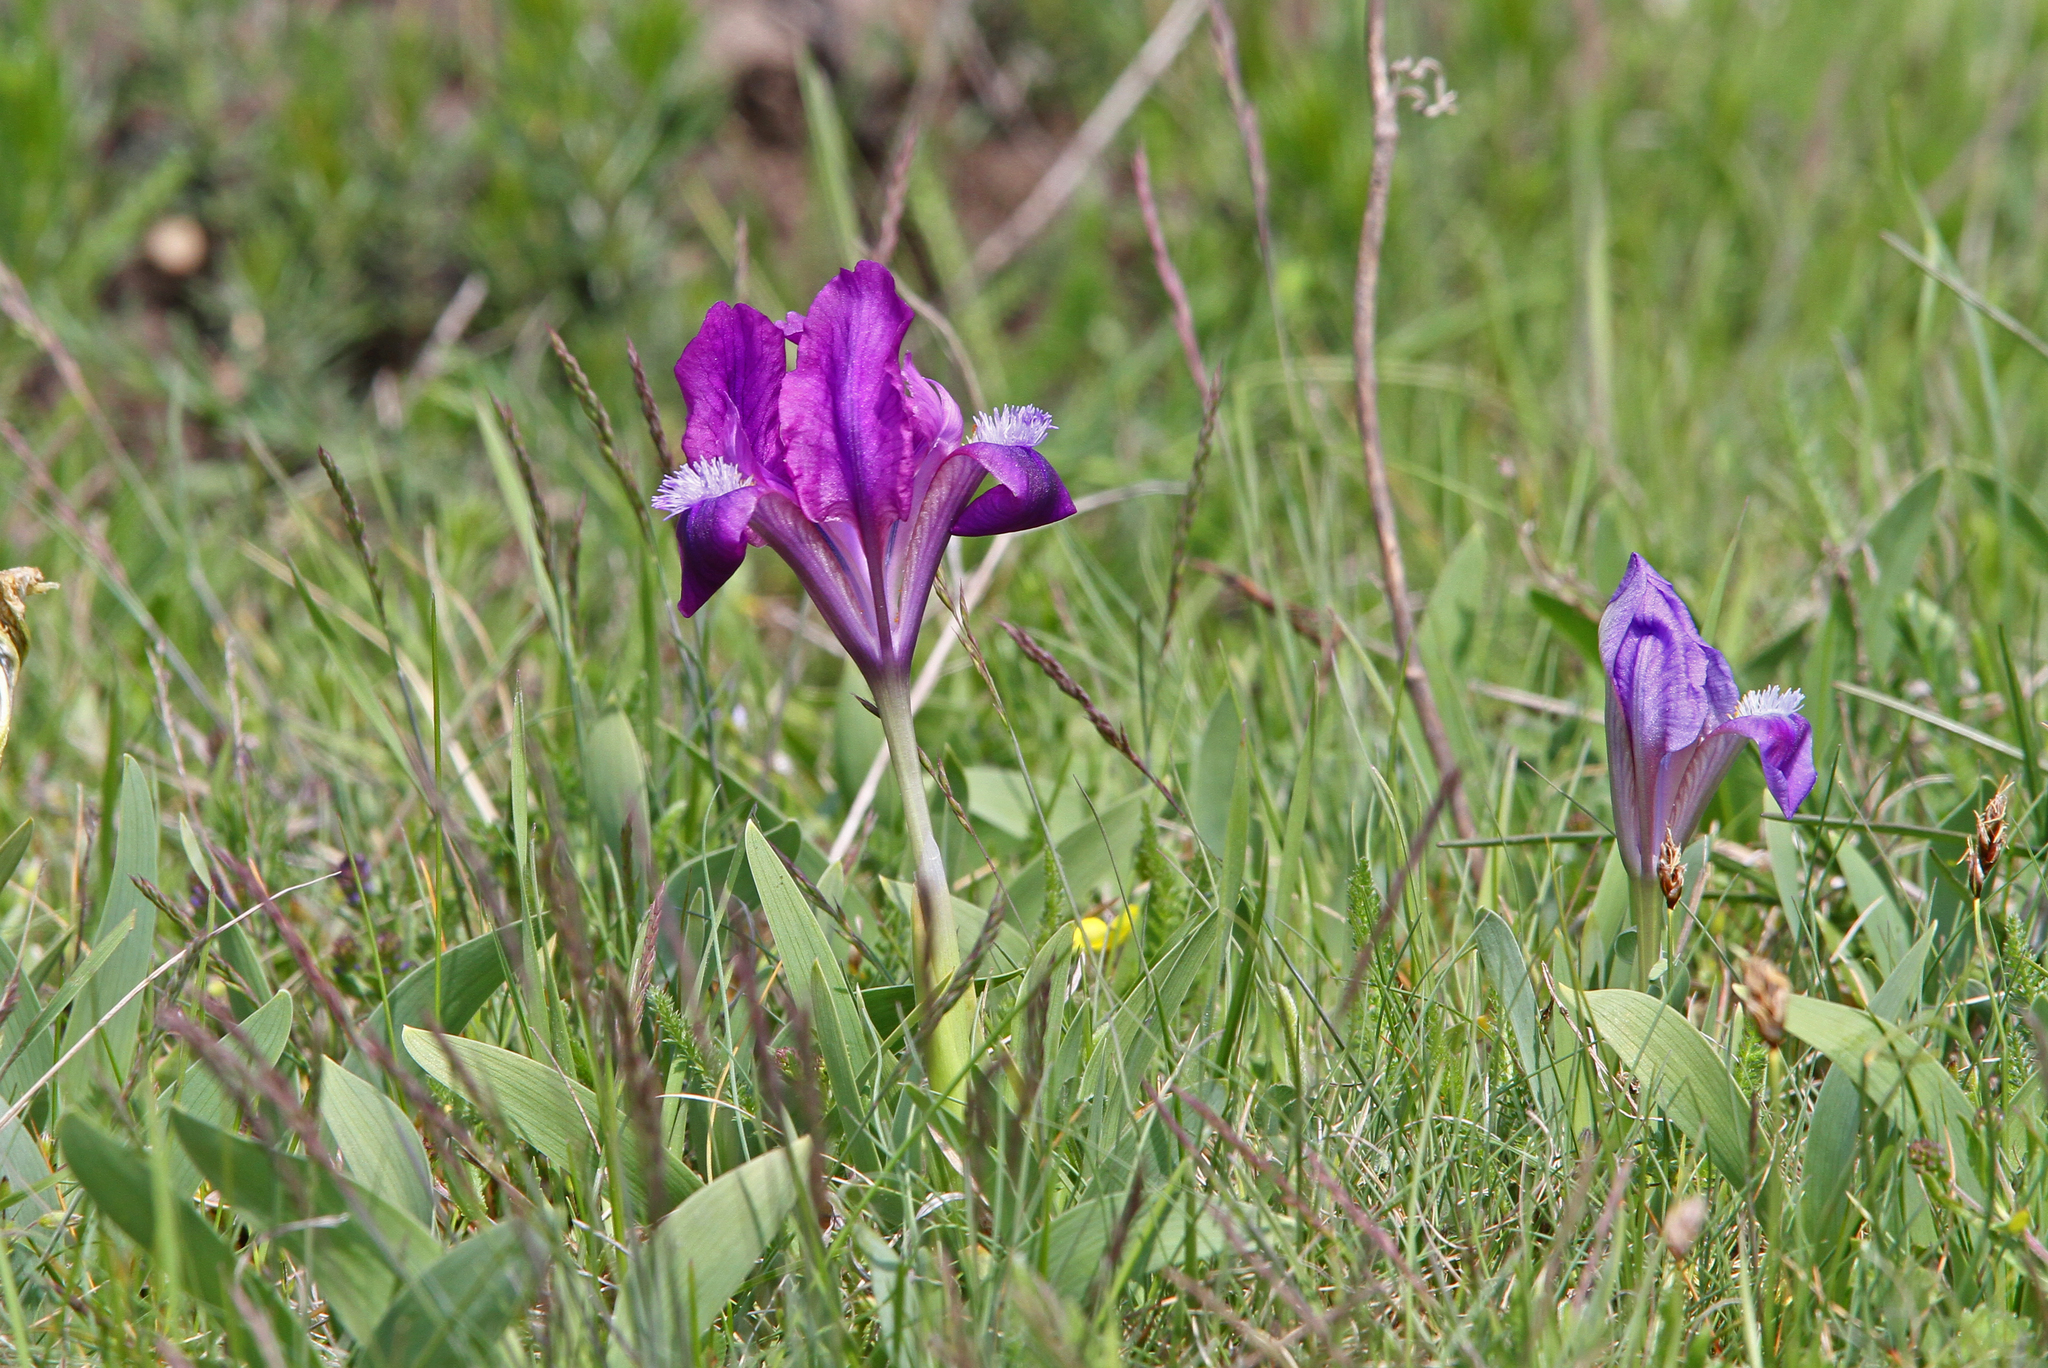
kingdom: Plantae
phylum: Tracheophyta
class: Liliopsida
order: Asparagales
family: Iridaceae
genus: Iris
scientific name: Iris pumila
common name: Dwarf iris
